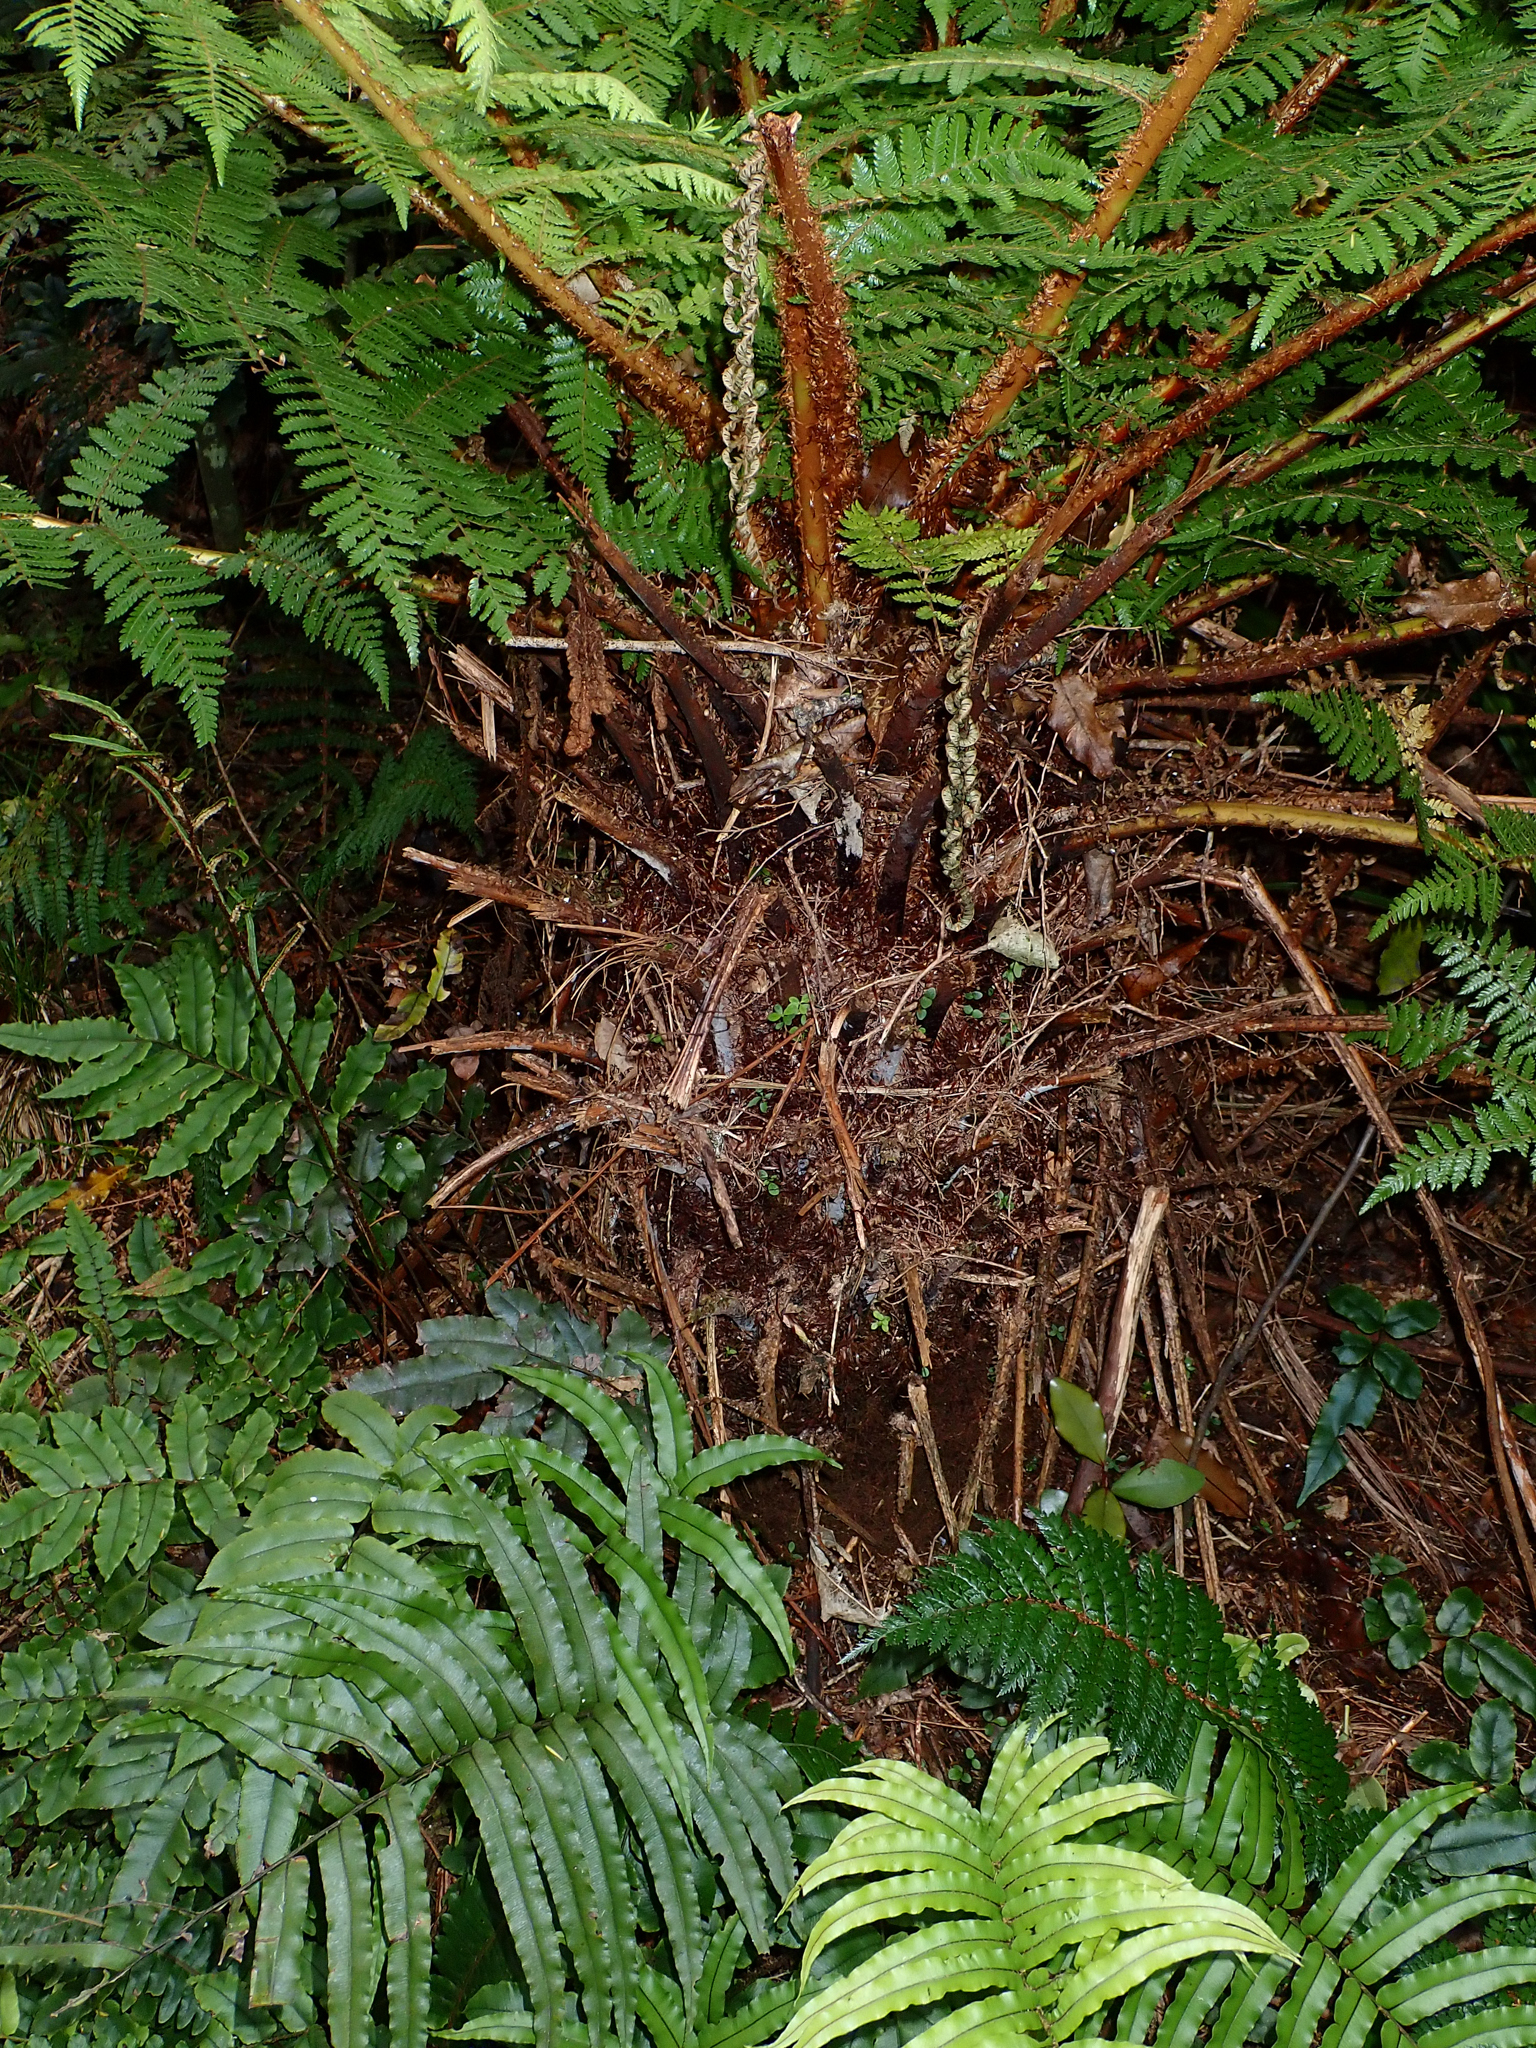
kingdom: Plantae
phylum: Tracheophyta
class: Polypodiopsida
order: Cyatheales
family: Cyatheaceae
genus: Alsophila
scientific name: Alsophila smithii
